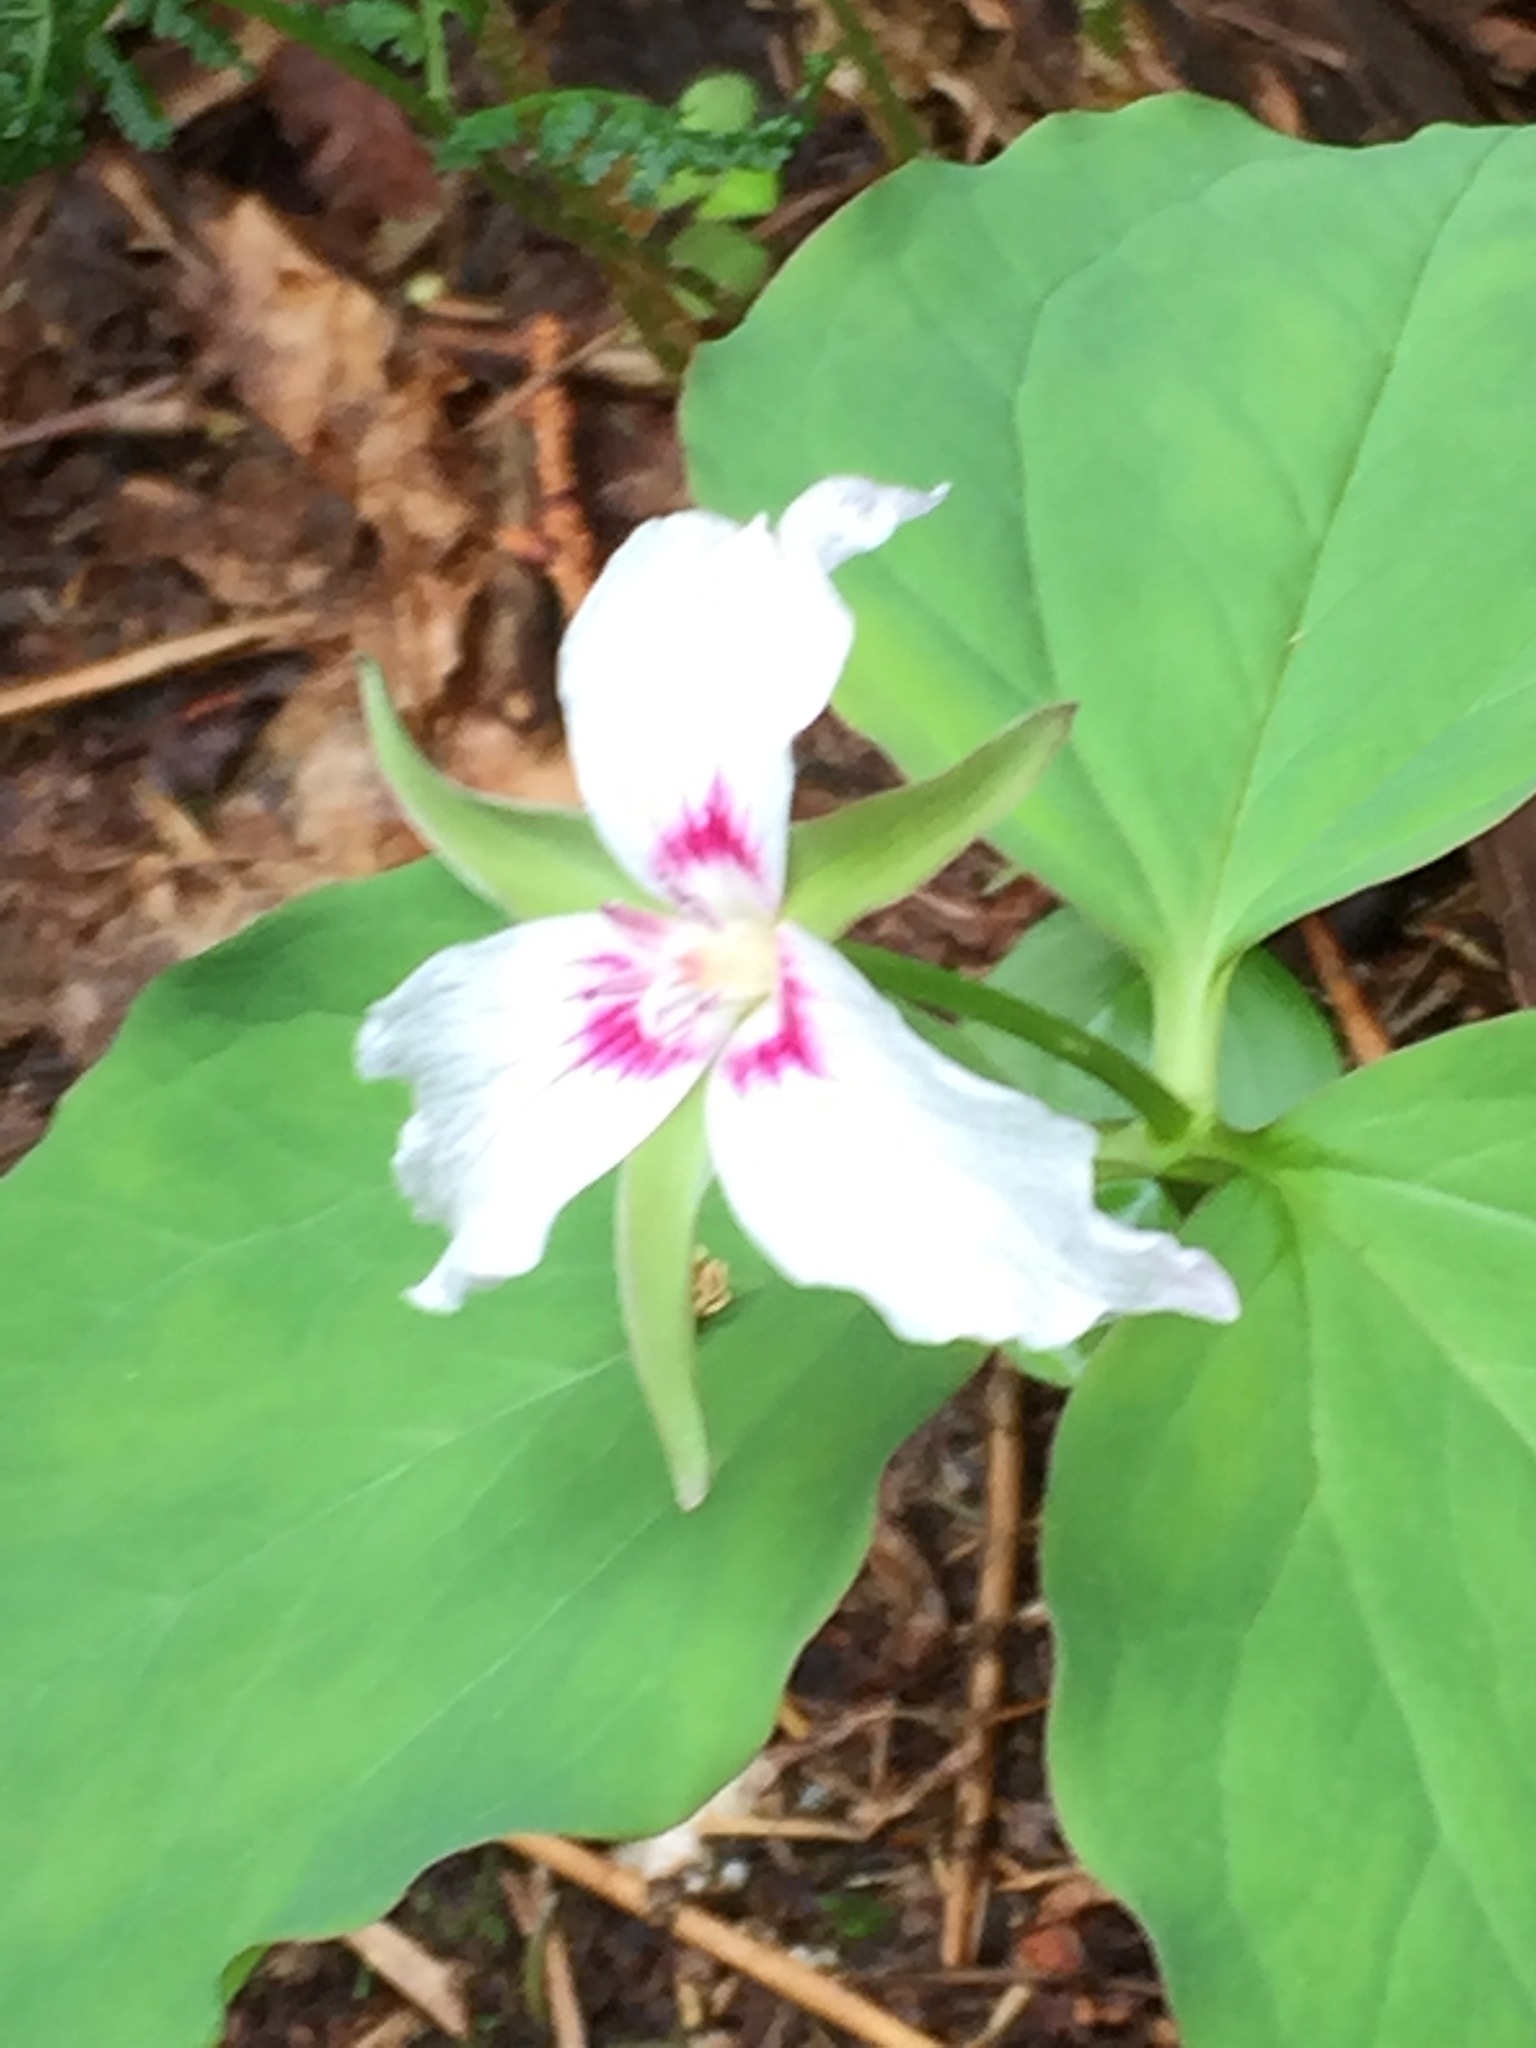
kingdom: Plantae
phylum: Tracheophyta
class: Liliopsida
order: Liliales
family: Melanthiaceae
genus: Trillium
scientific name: Trillium undulatum
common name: Paint trillium
